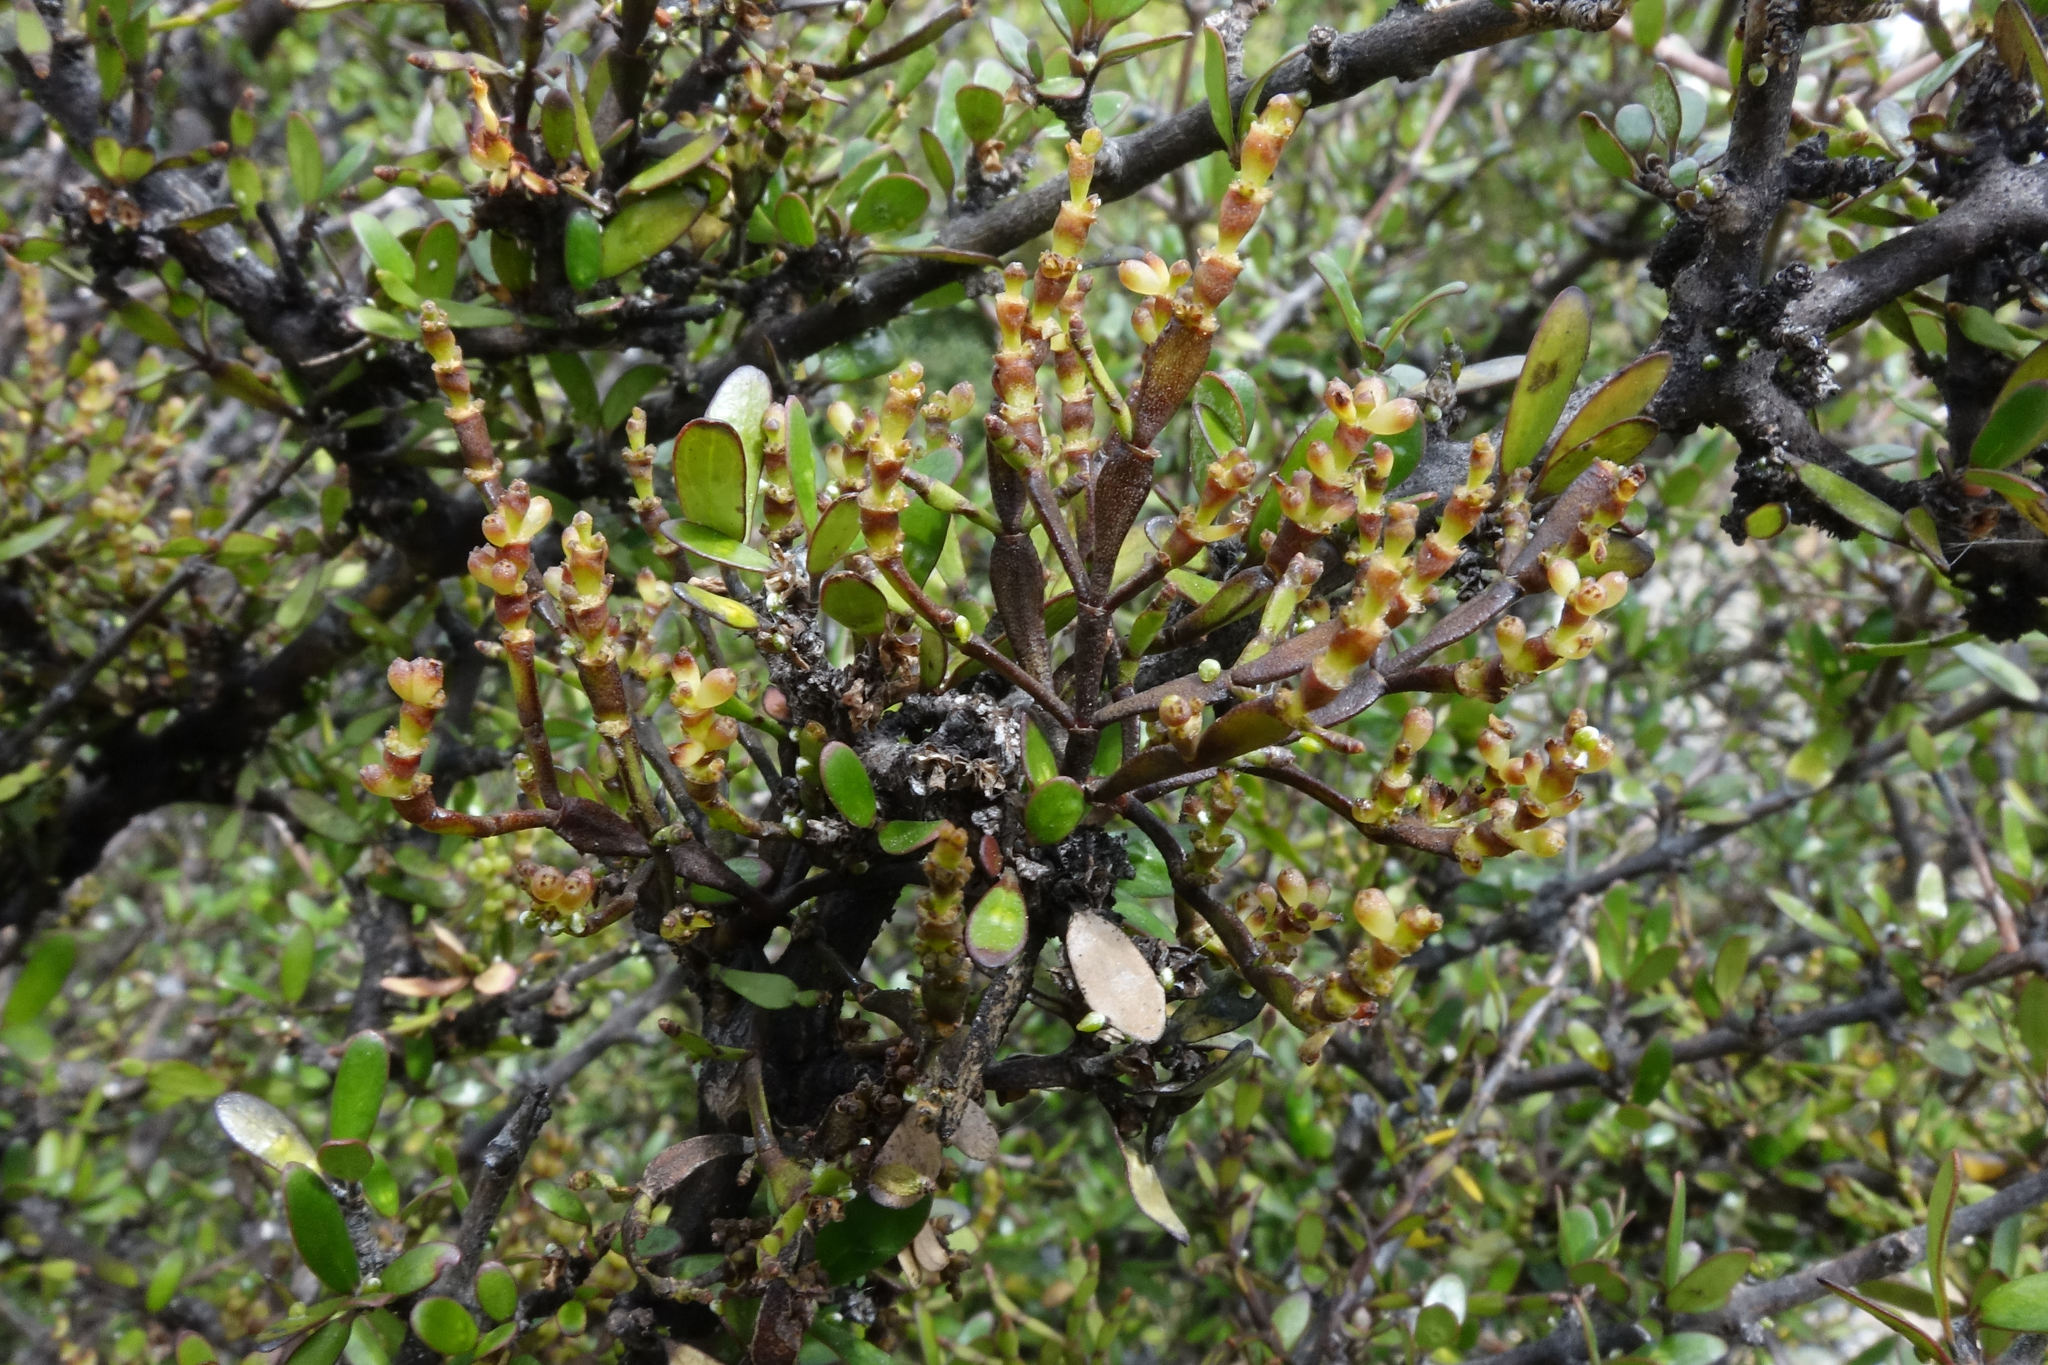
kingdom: Plantae
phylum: Tracheophyta
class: Magnoliopsida
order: Santalales
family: Viscaceae
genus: Korthalsella
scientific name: Korthalsella clavata
